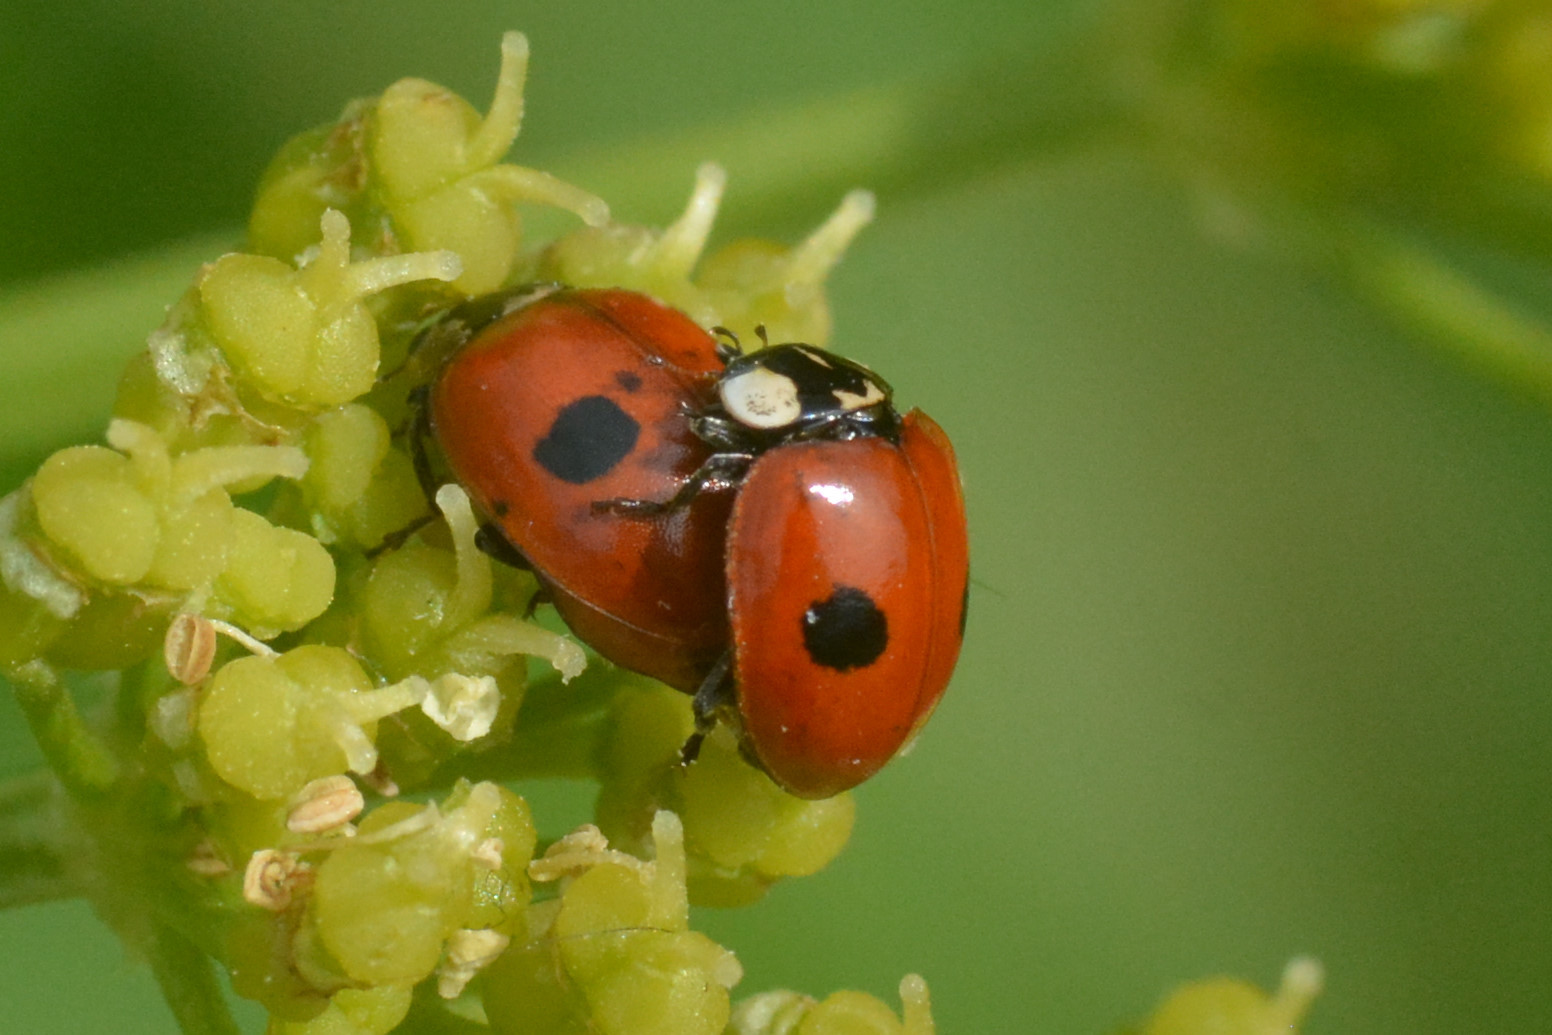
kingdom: Animalia
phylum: Arthropoda
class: Insecta
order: Coleoptera
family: Coccinellidae
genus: Adalia
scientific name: Adalia bipunctata
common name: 2-spot ladybird
